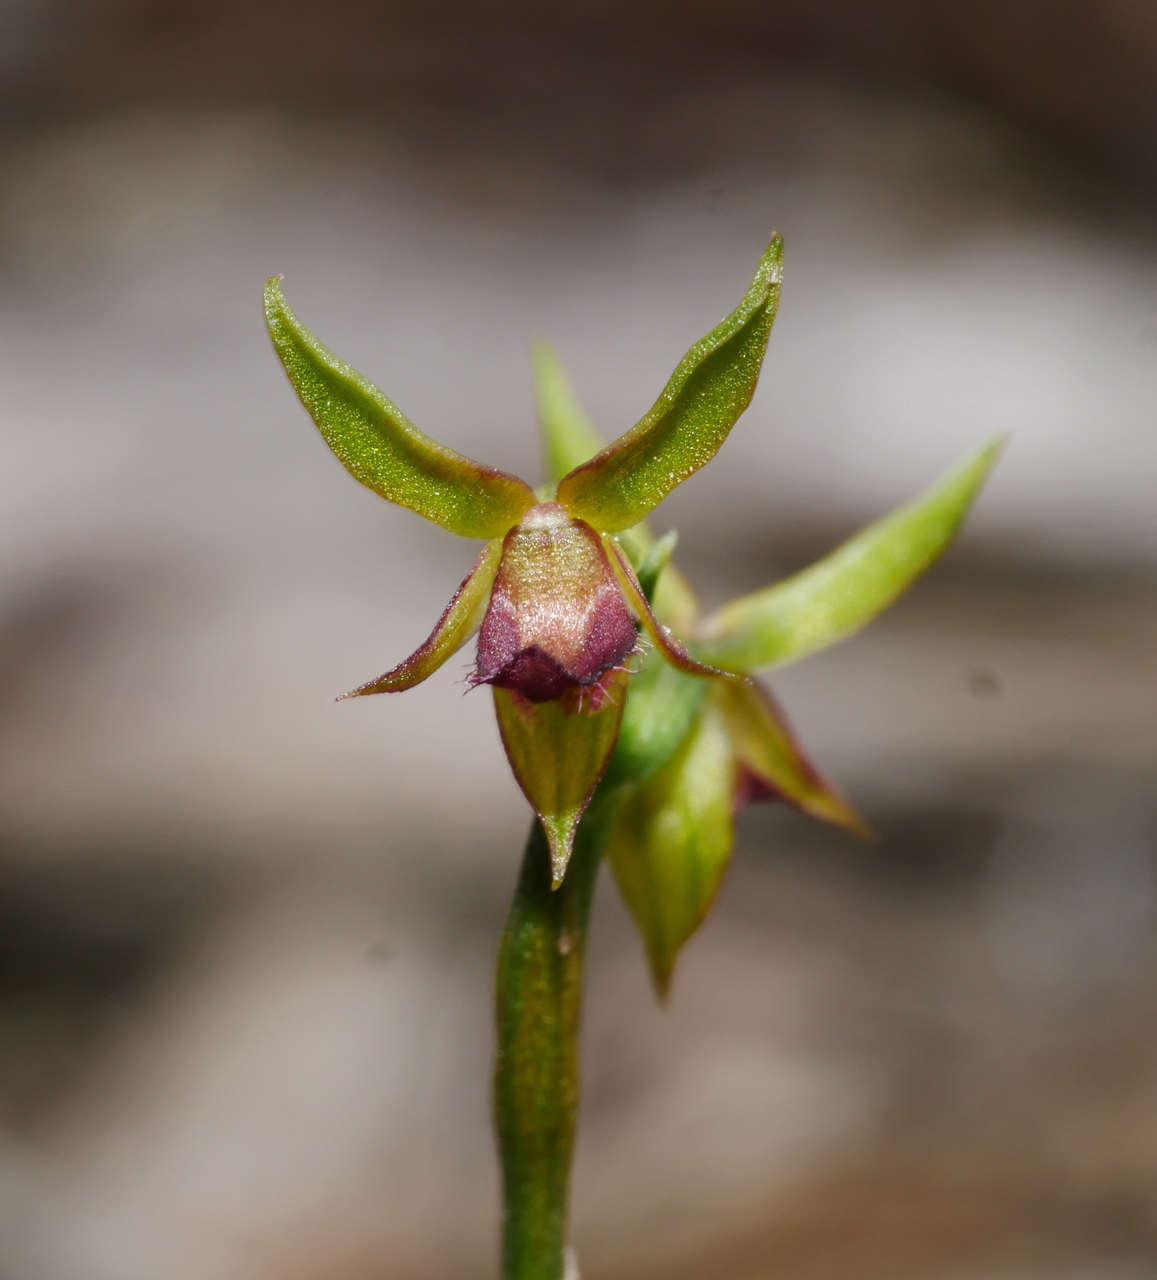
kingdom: Plantae
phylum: Tracheophyta
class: Liliopsida
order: Asparagales
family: Orchidaceae
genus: Genoplesium
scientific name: Genoplesium archeri
